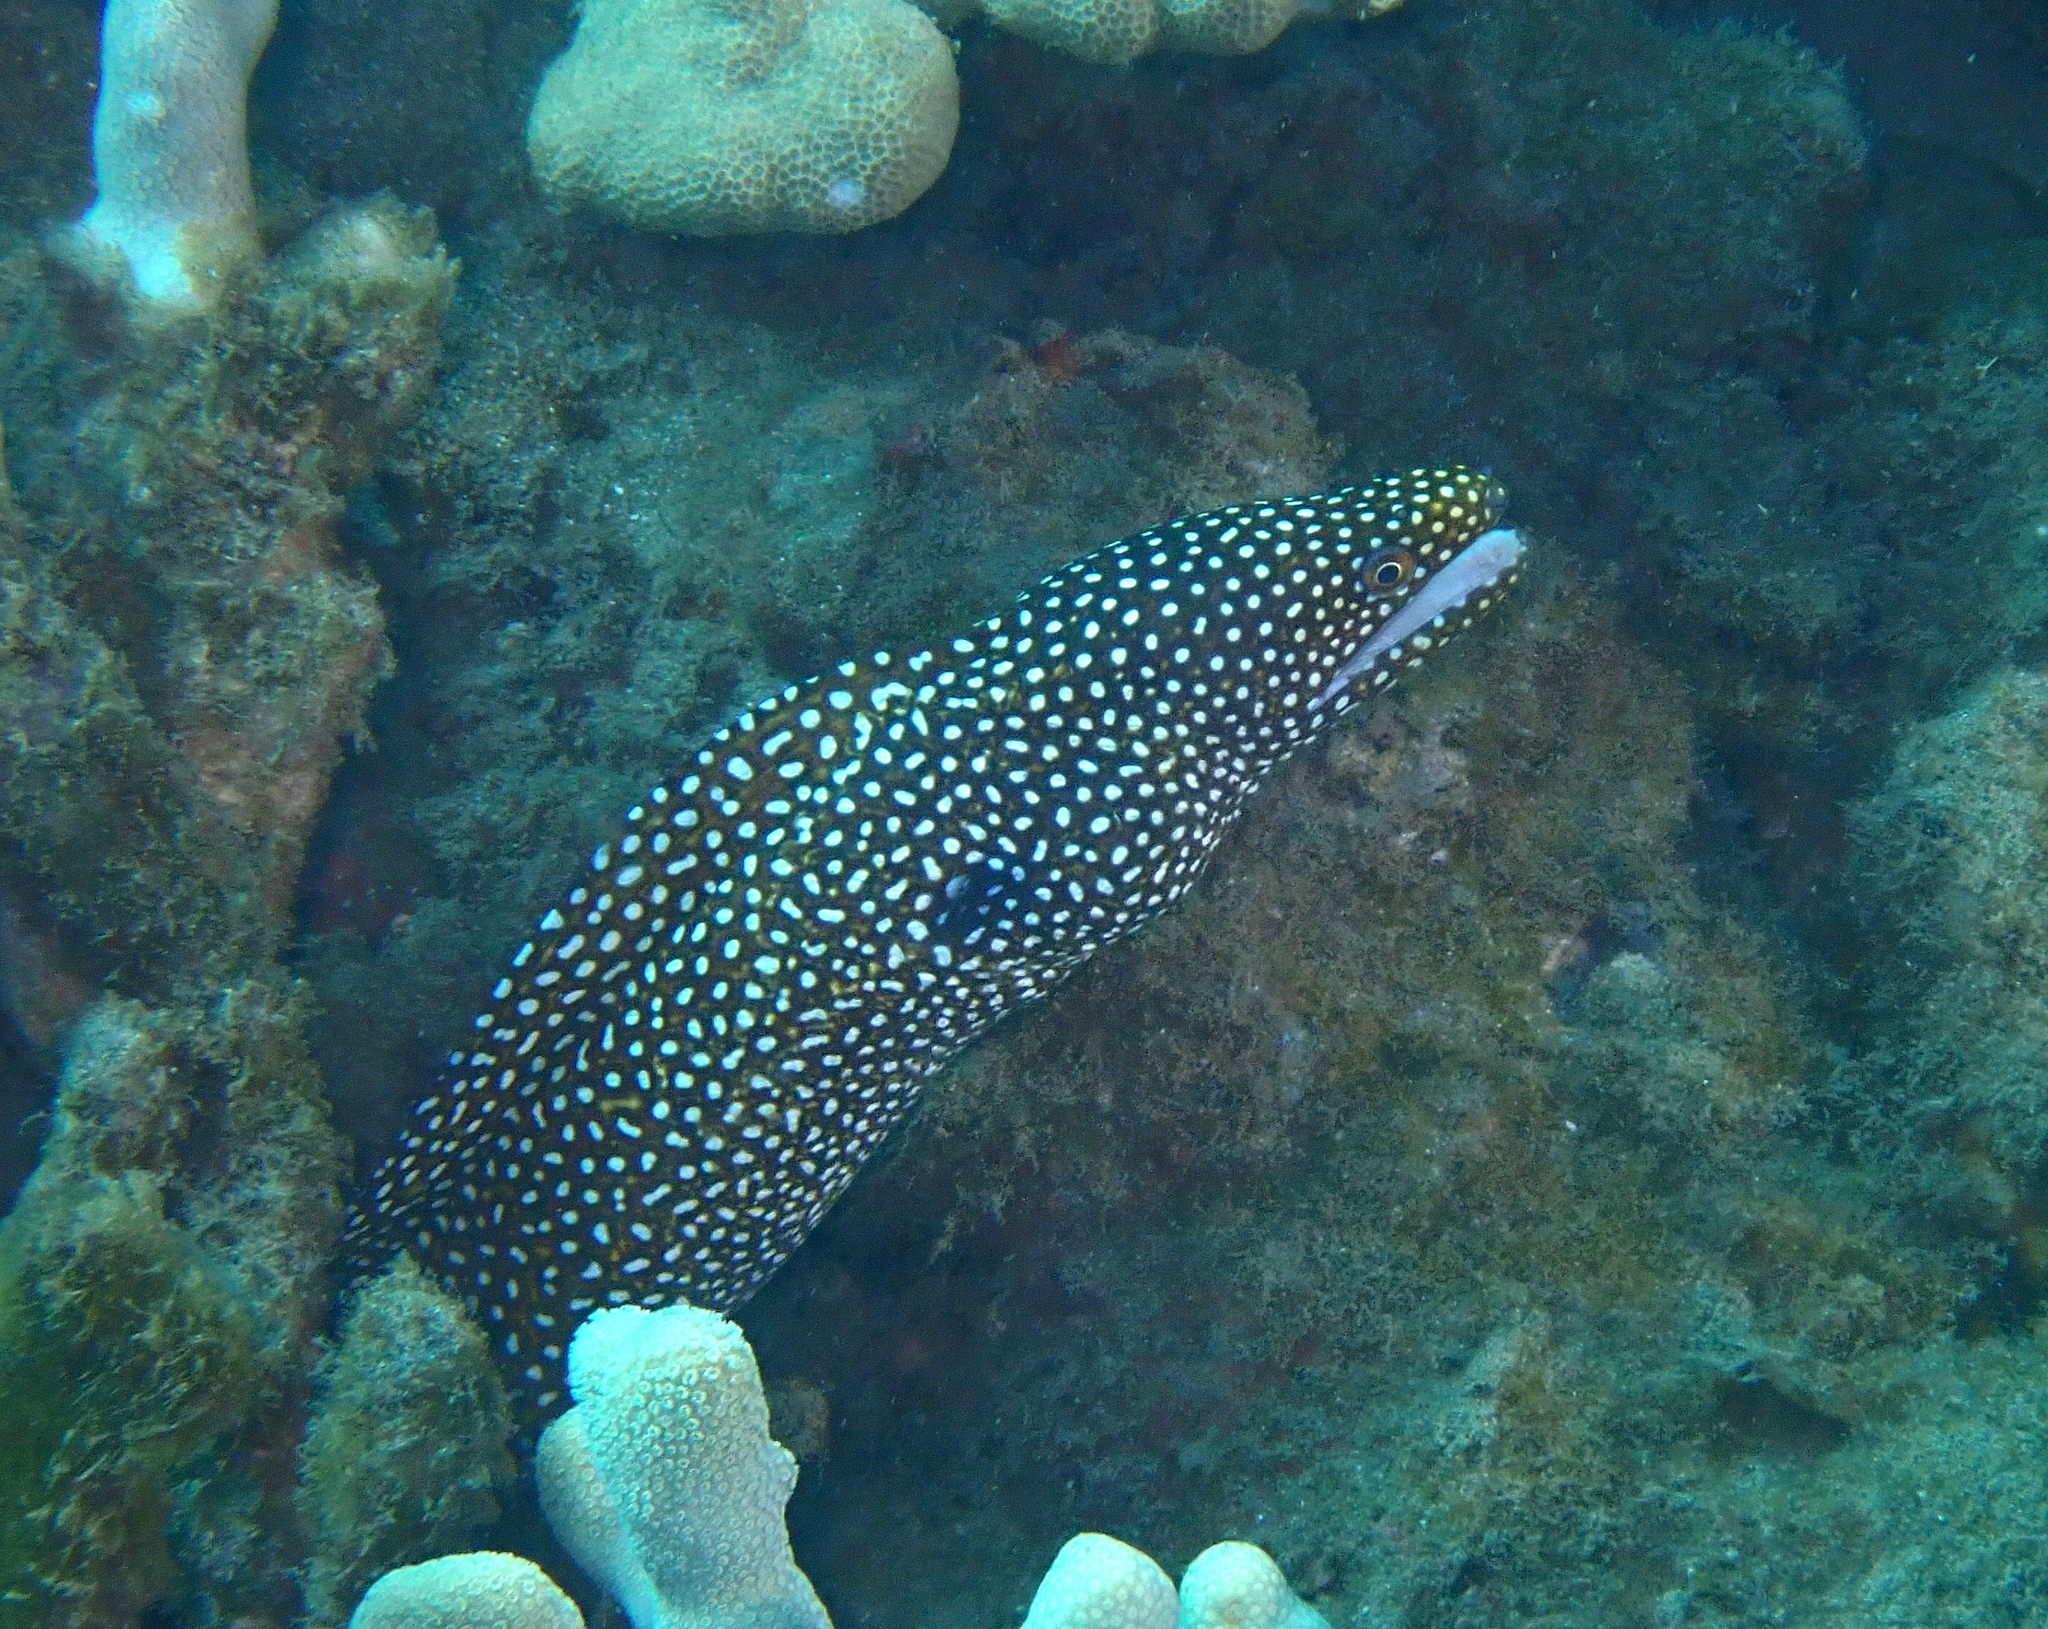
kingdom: Animalia
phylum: Chordata
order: Anguilliformes
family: Muraenidae
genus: Gymnothorax
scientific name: Gymnothorax meleagris
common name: Guineafowl moray
